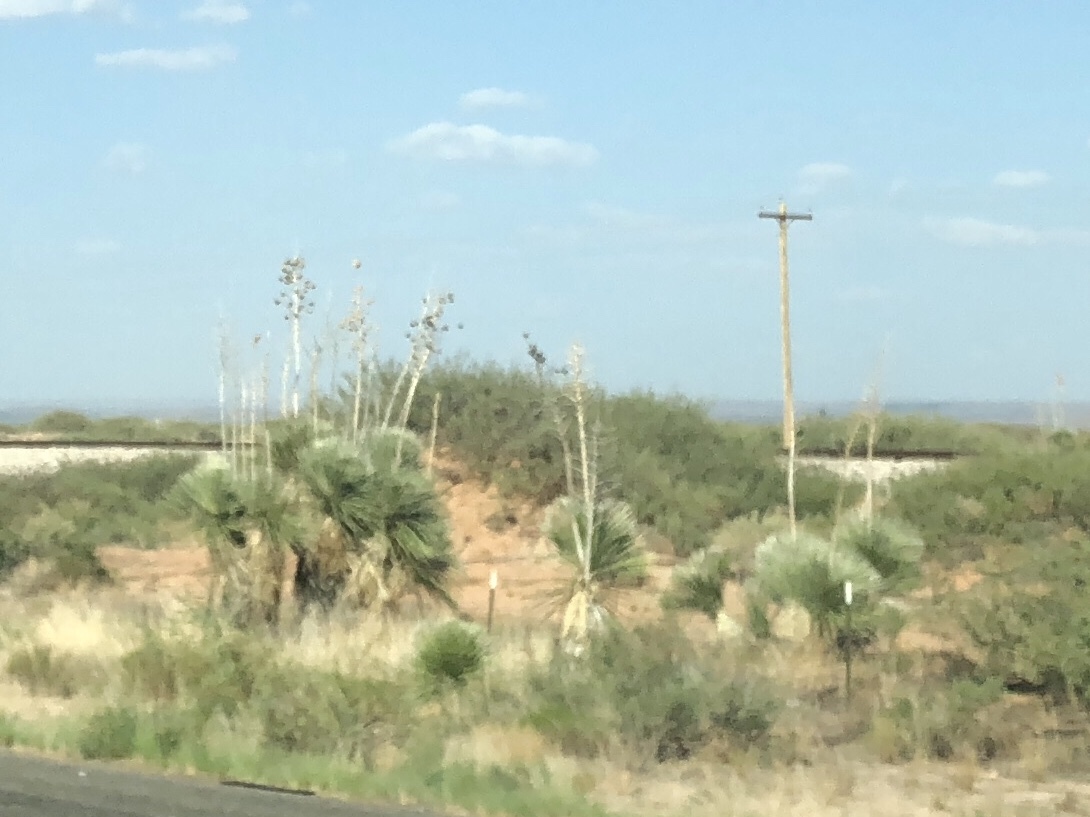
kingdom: Plantae
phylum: Tracheophyta
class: Liliopsida
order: Asparagales
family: Asparagaceae
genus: Yucca
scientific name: Yucca elata
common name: Palmella
